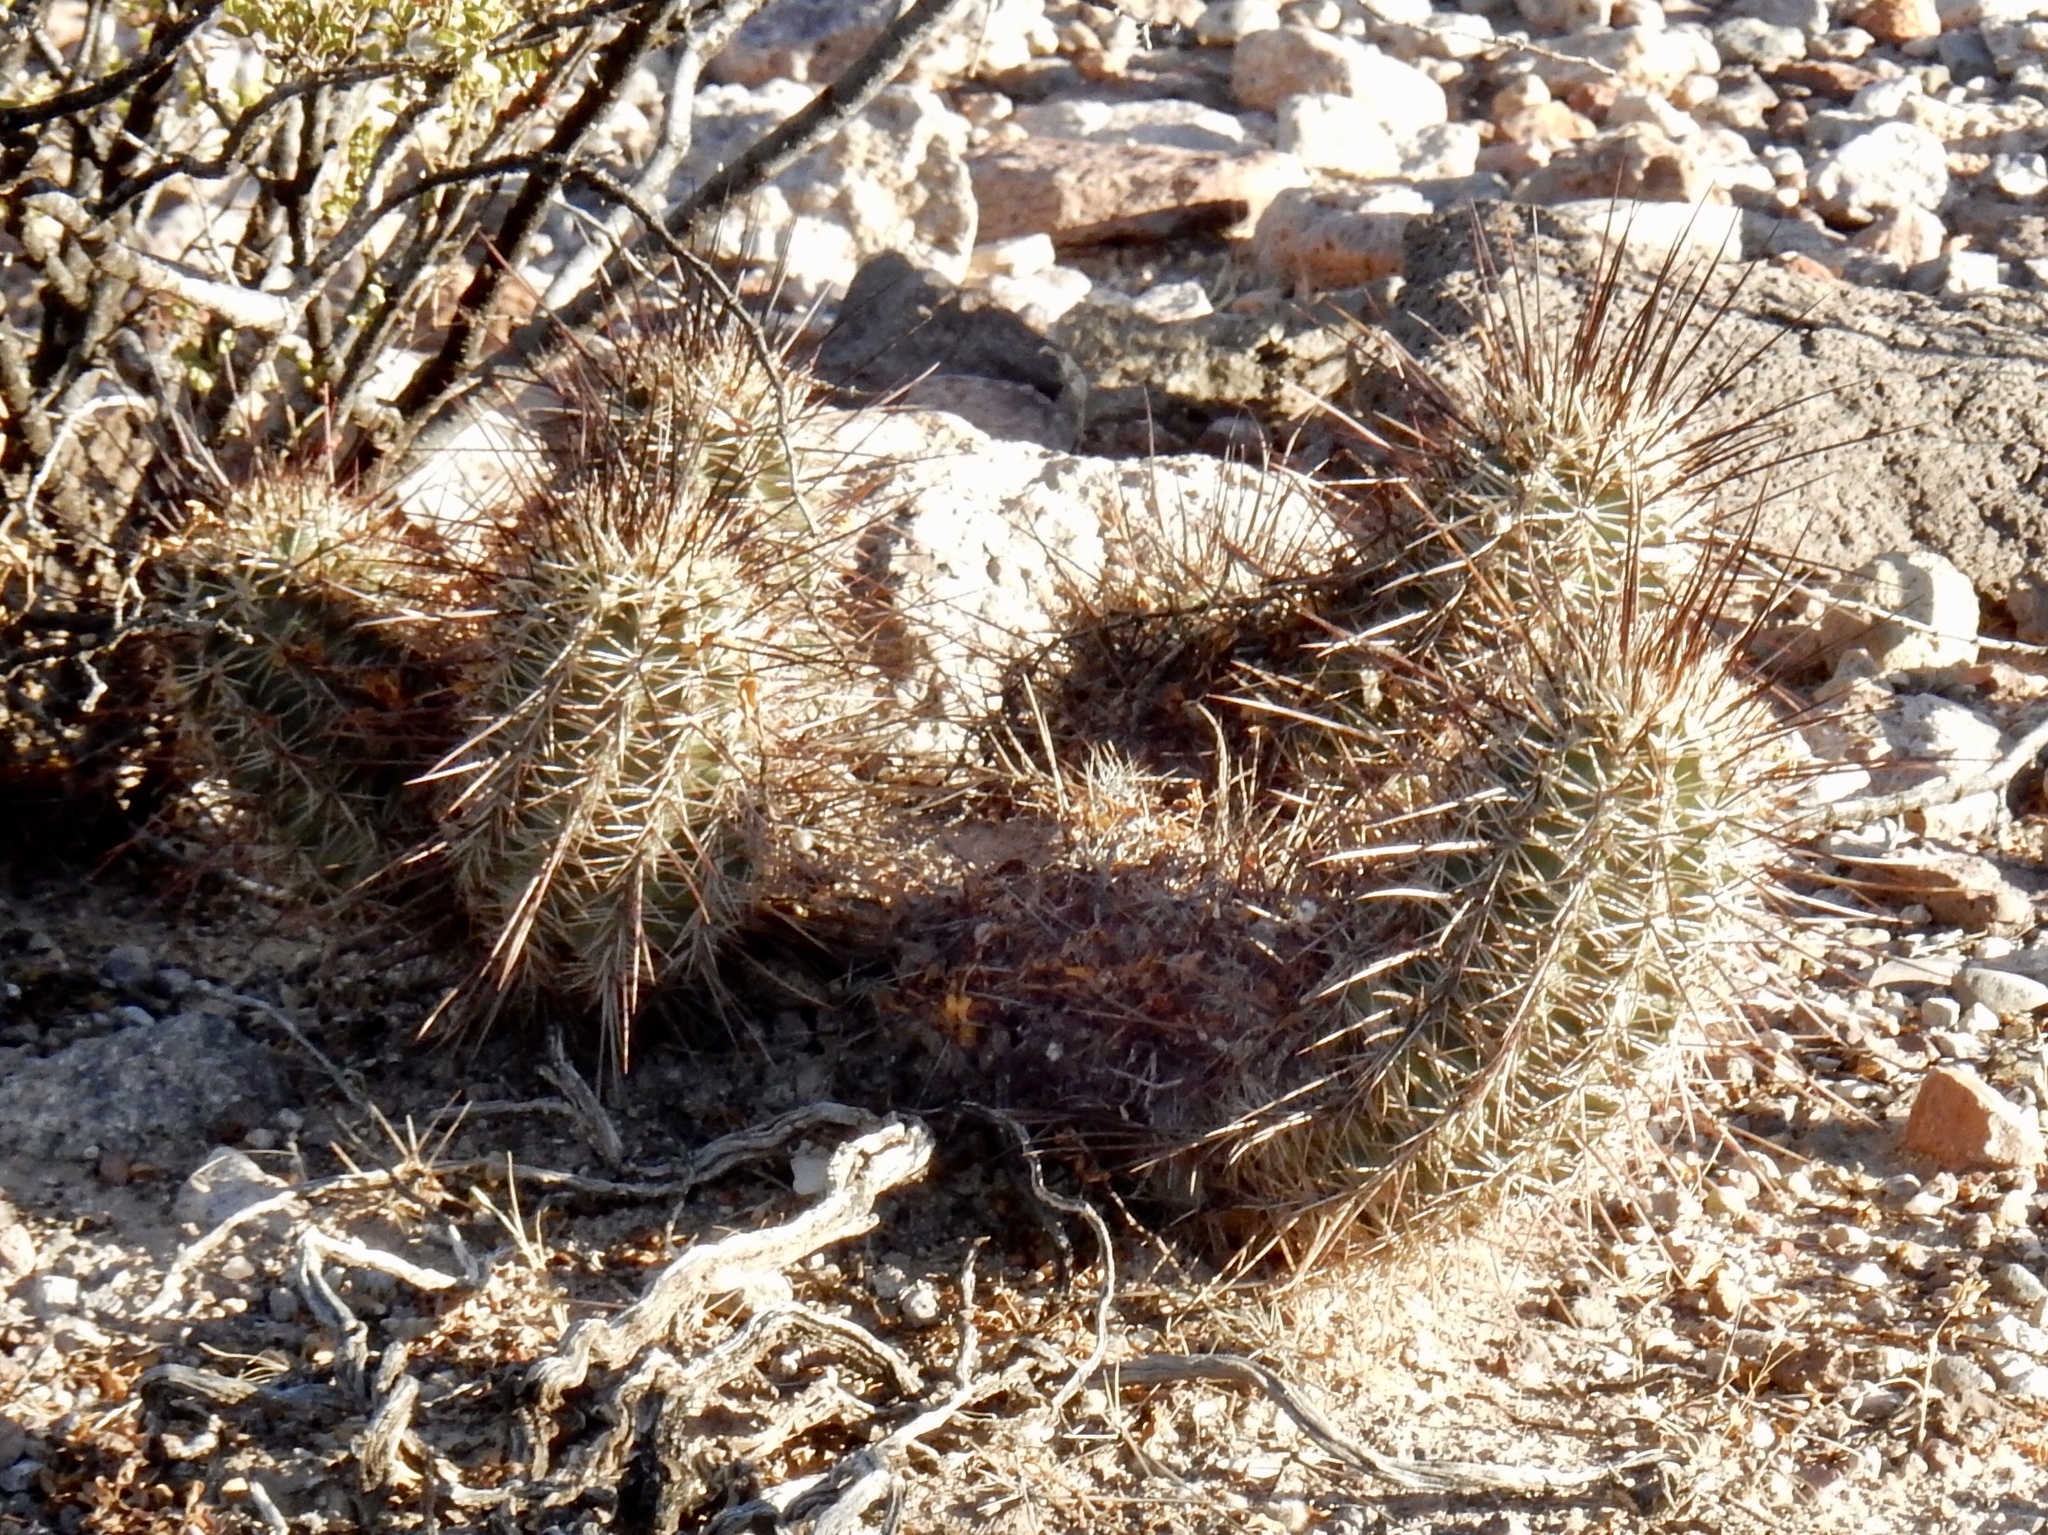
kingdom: Plantae
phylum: Tracheophyta
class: Magnoliopsida
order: Caryophyllales
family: Cactaceae
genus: Echinocereus
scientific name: Echinocereus fasciculatus
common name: Bundle hedgehog
